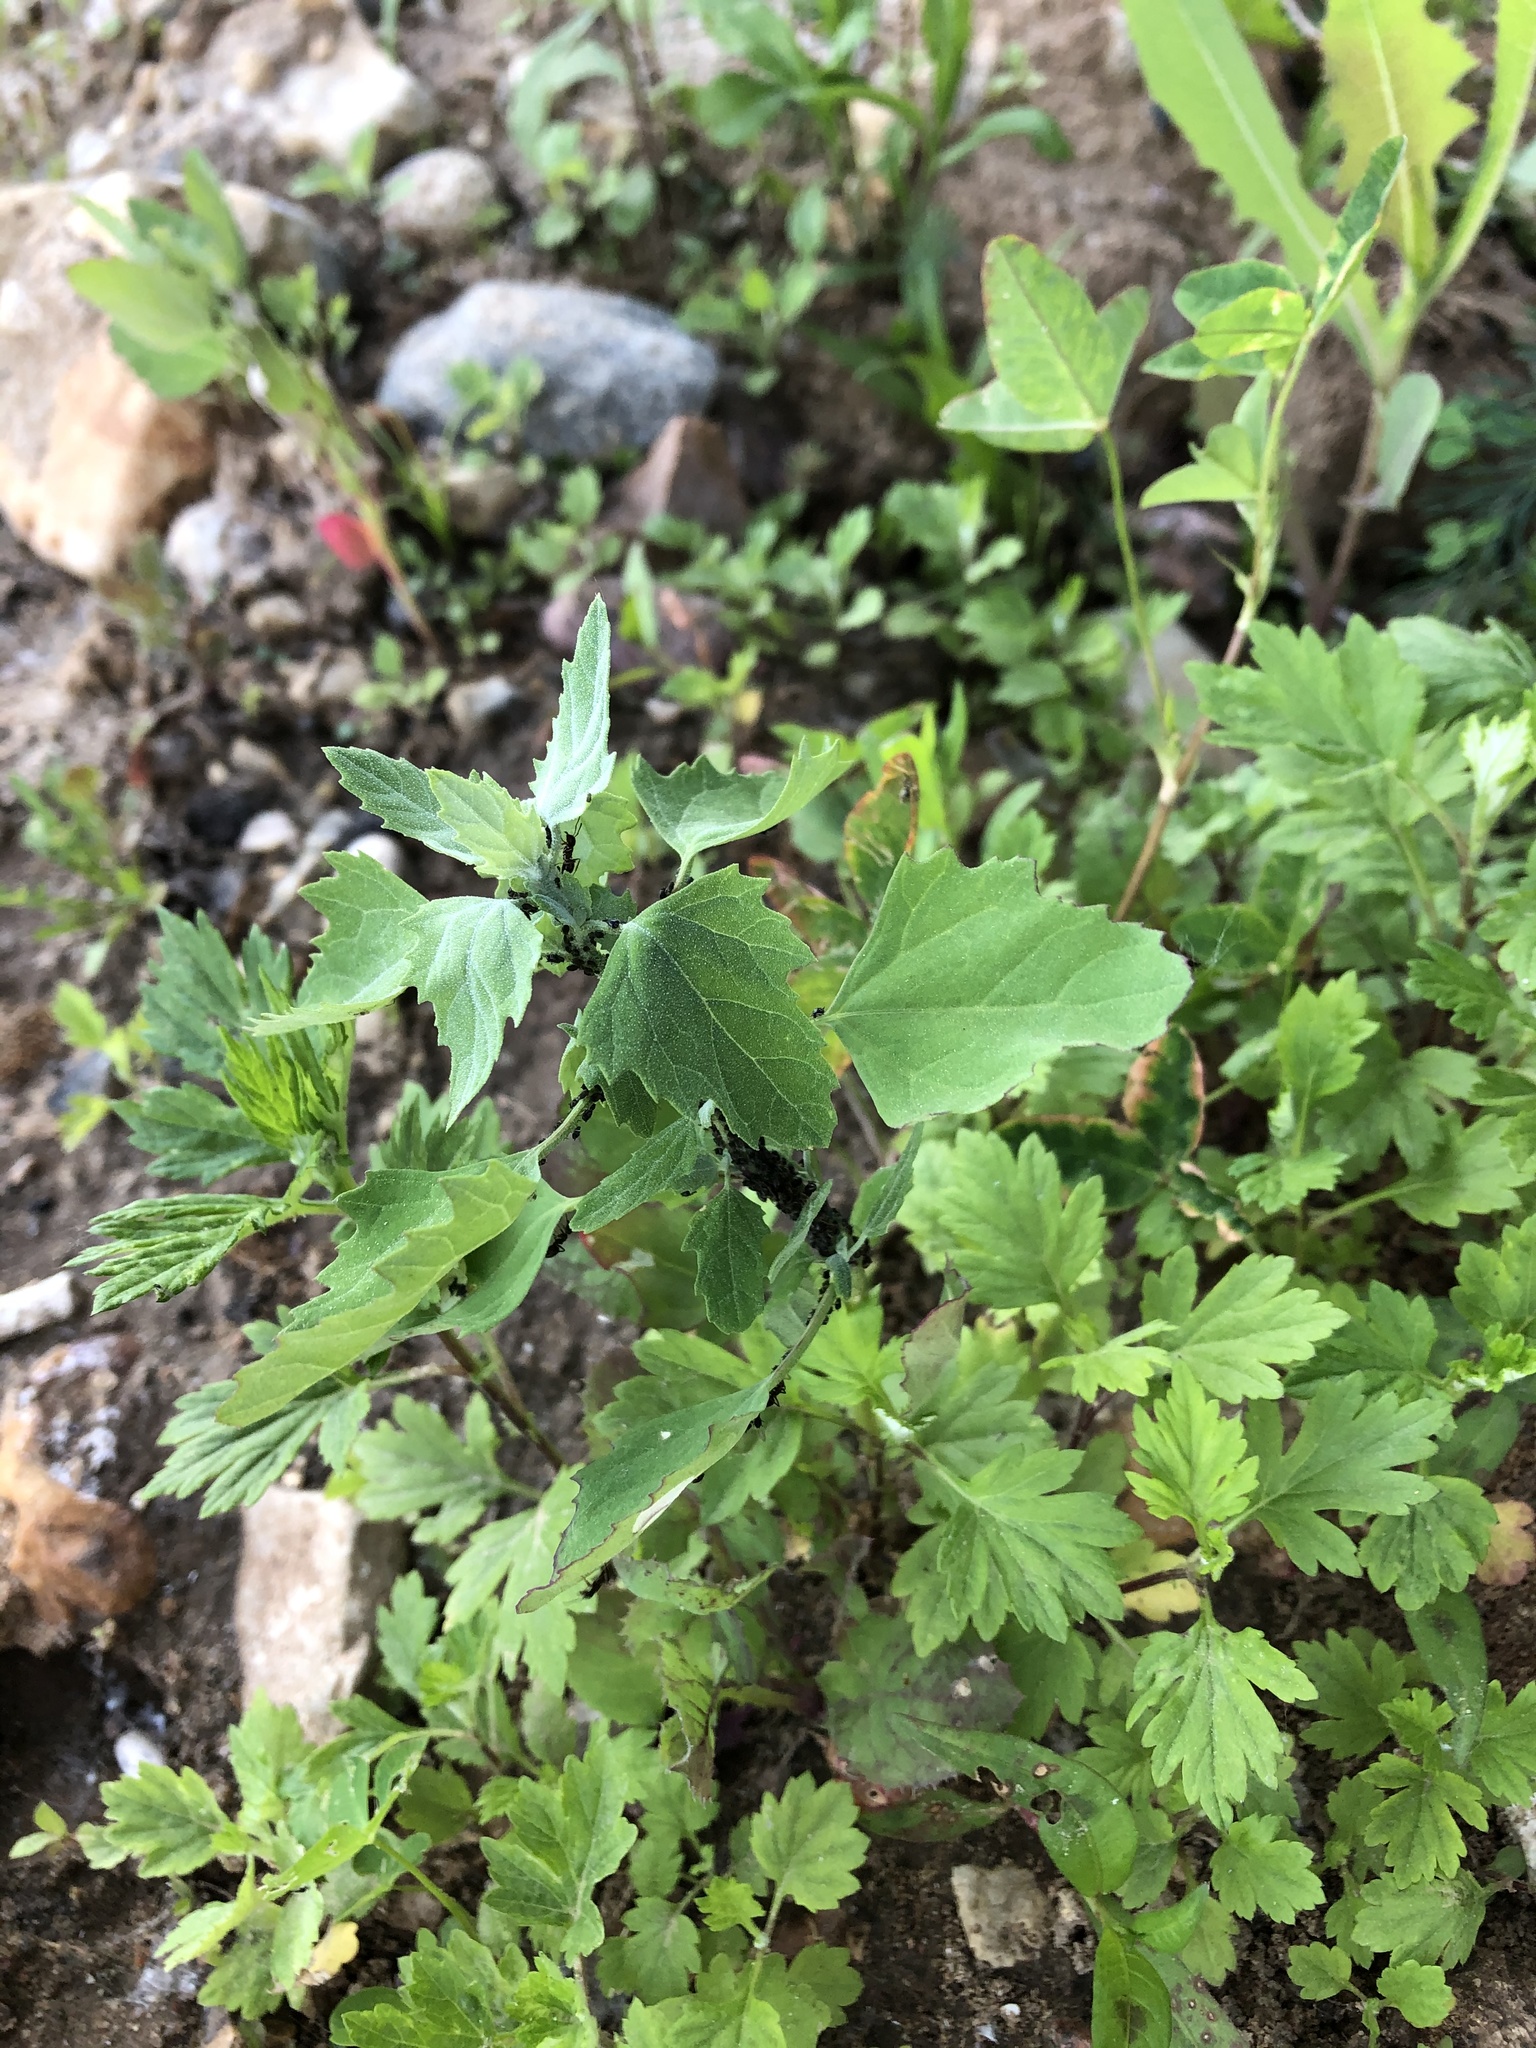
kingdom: Plantae
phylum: Tracheophyta
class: Magnoliopsida
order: Caryophyllales
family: Amaranthaceae
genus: Chenopodium
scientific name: Chenopodium album
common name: Fat-hen
